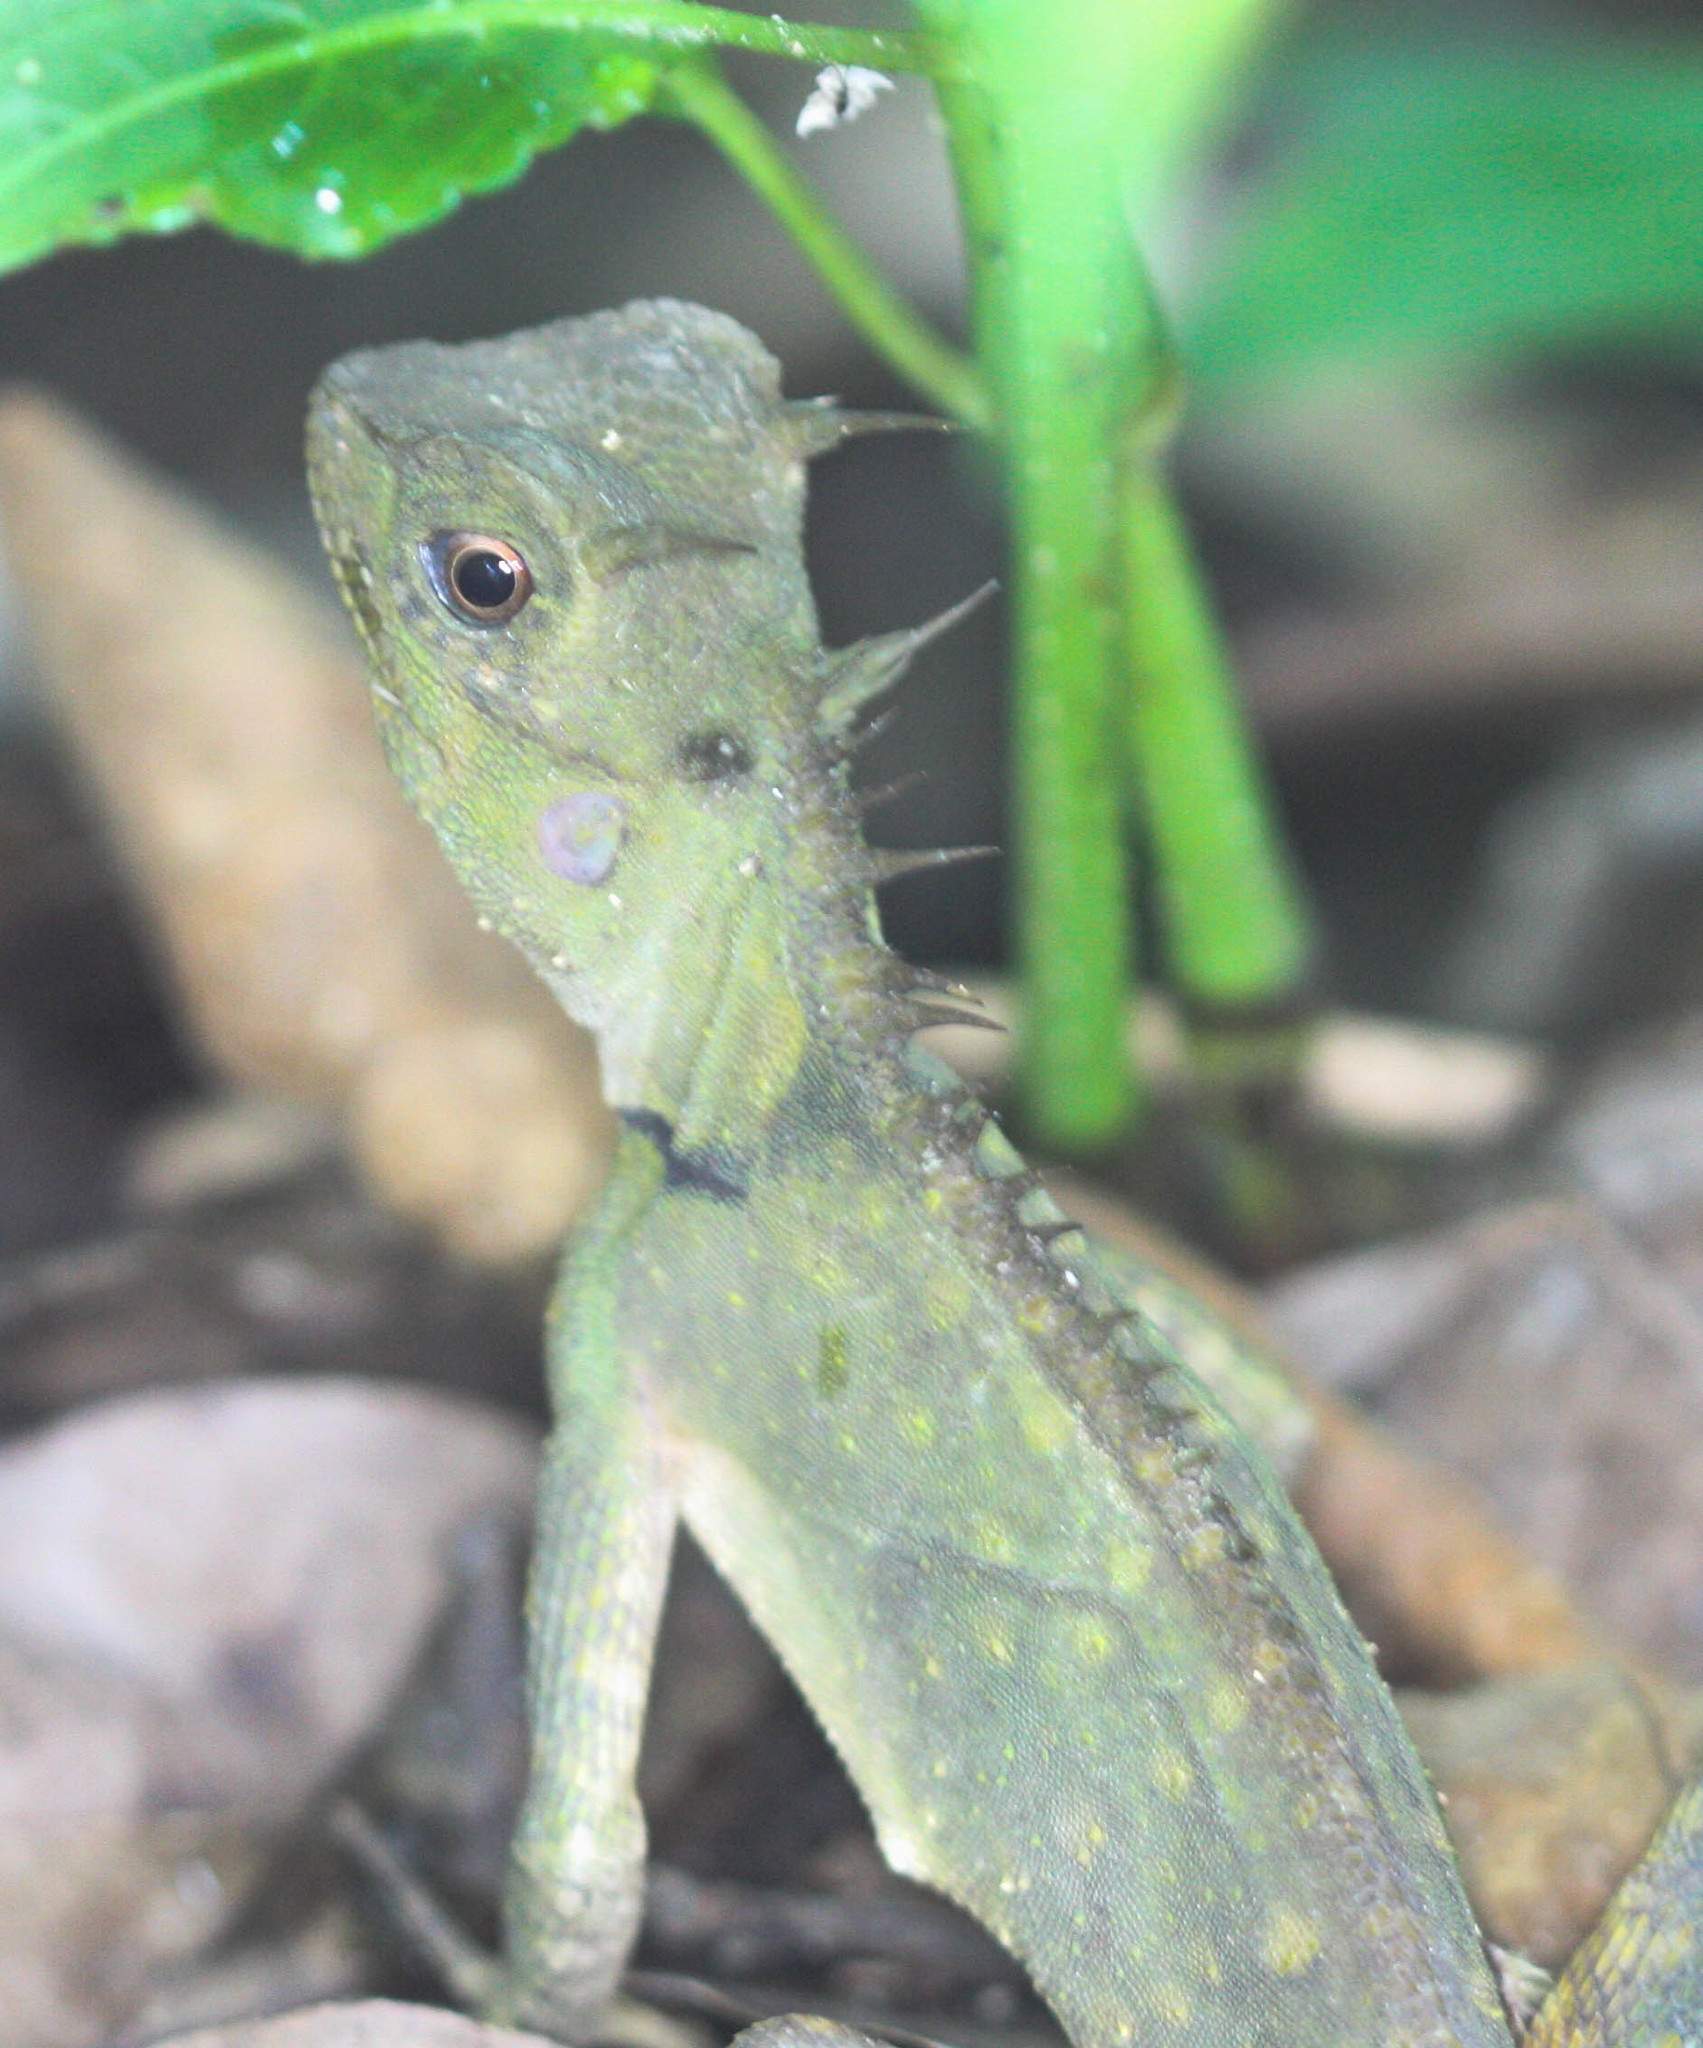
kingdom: Animalia
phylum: Chordata
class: Squamata
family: Agamidae
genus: Acanthosaura
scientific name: Acanthosaura armata
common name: Armored pricklenape
